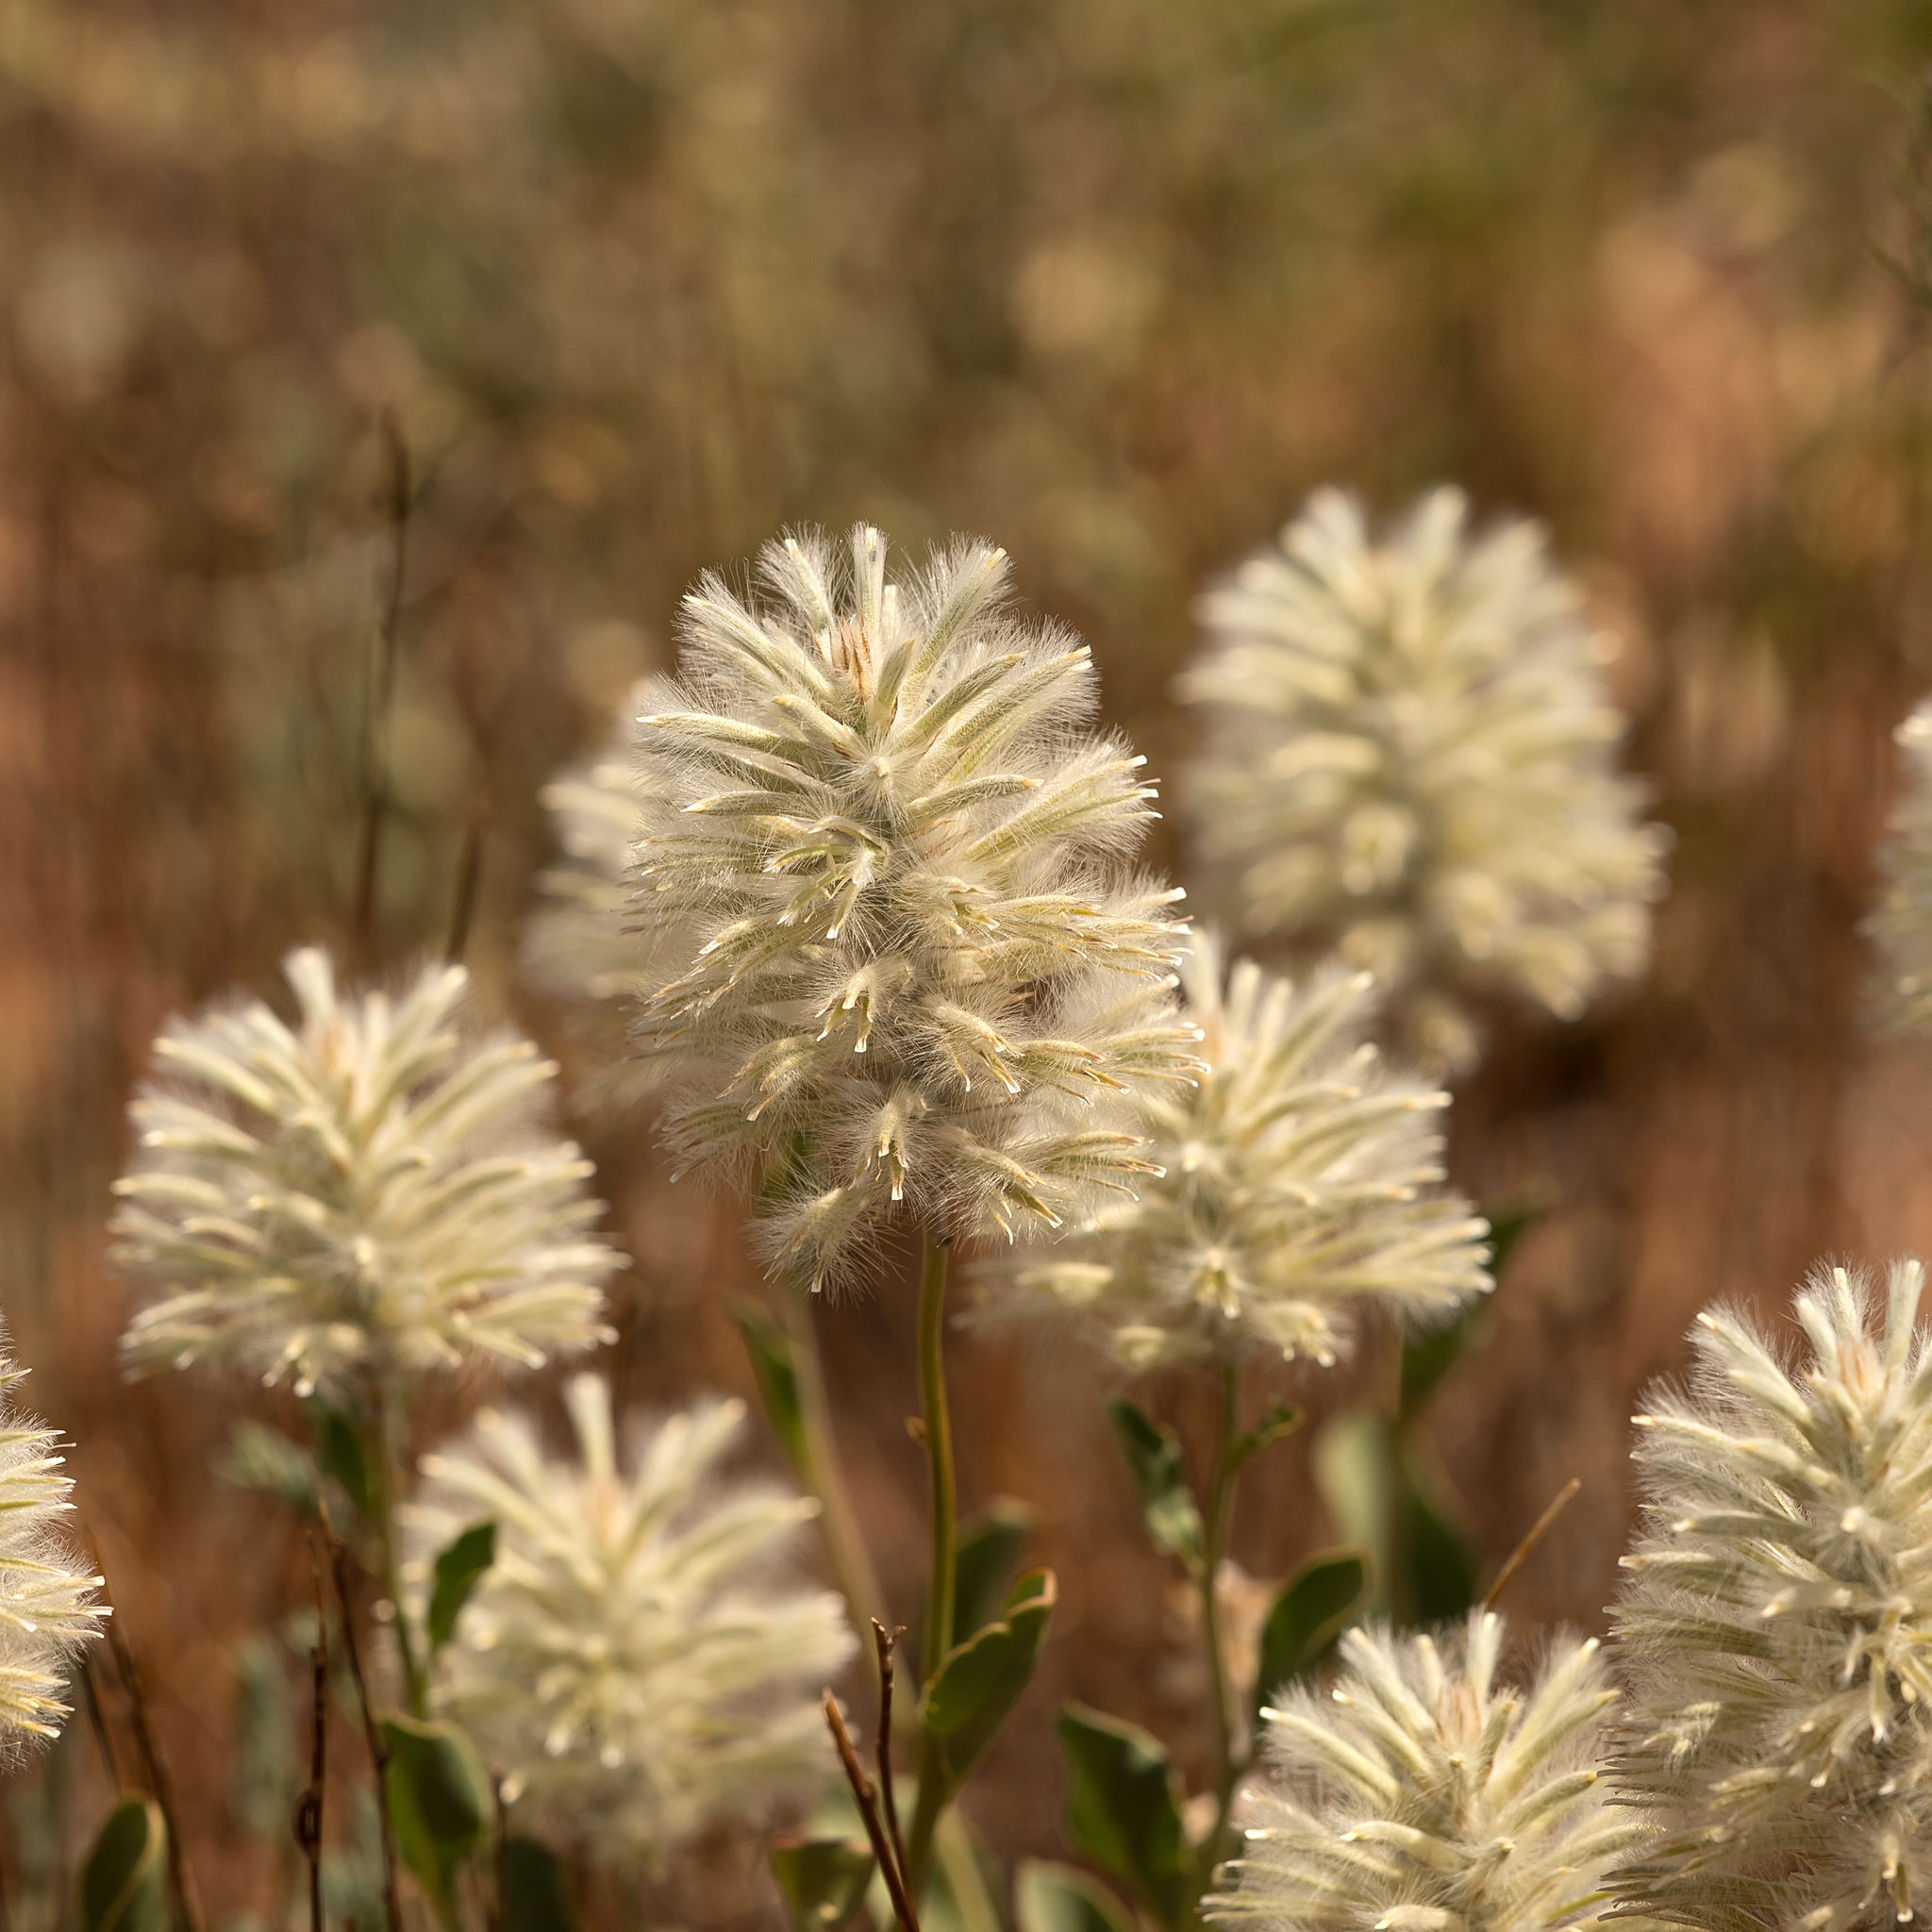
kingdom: Plantae
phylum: Tracheophyta
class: Magnoliopsida
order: Caryophyllales
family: Amaranthaceae
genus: Ptilotus
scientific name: Ptilotus nobilis
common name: Regal-foxtail
